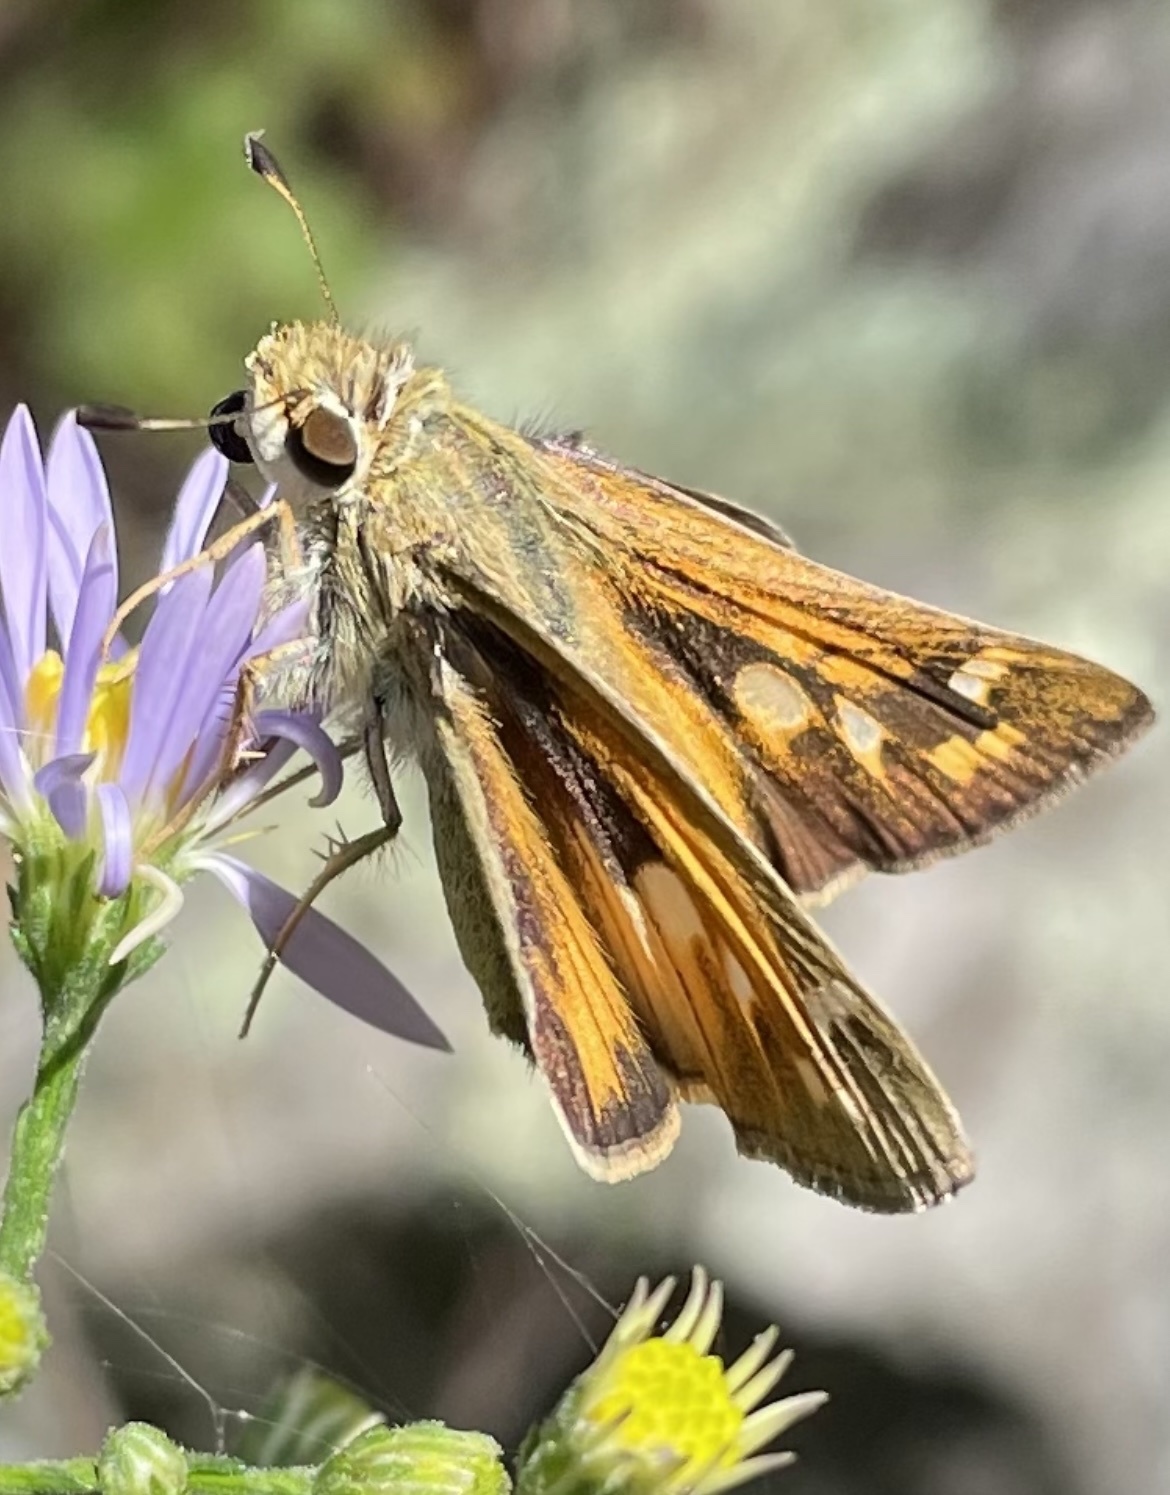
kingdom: Animalia
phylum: Arthropoda
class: Insecta
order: Lepidoptera
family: Hesperiidae
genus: Atalopedes
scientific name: Atalopedes
